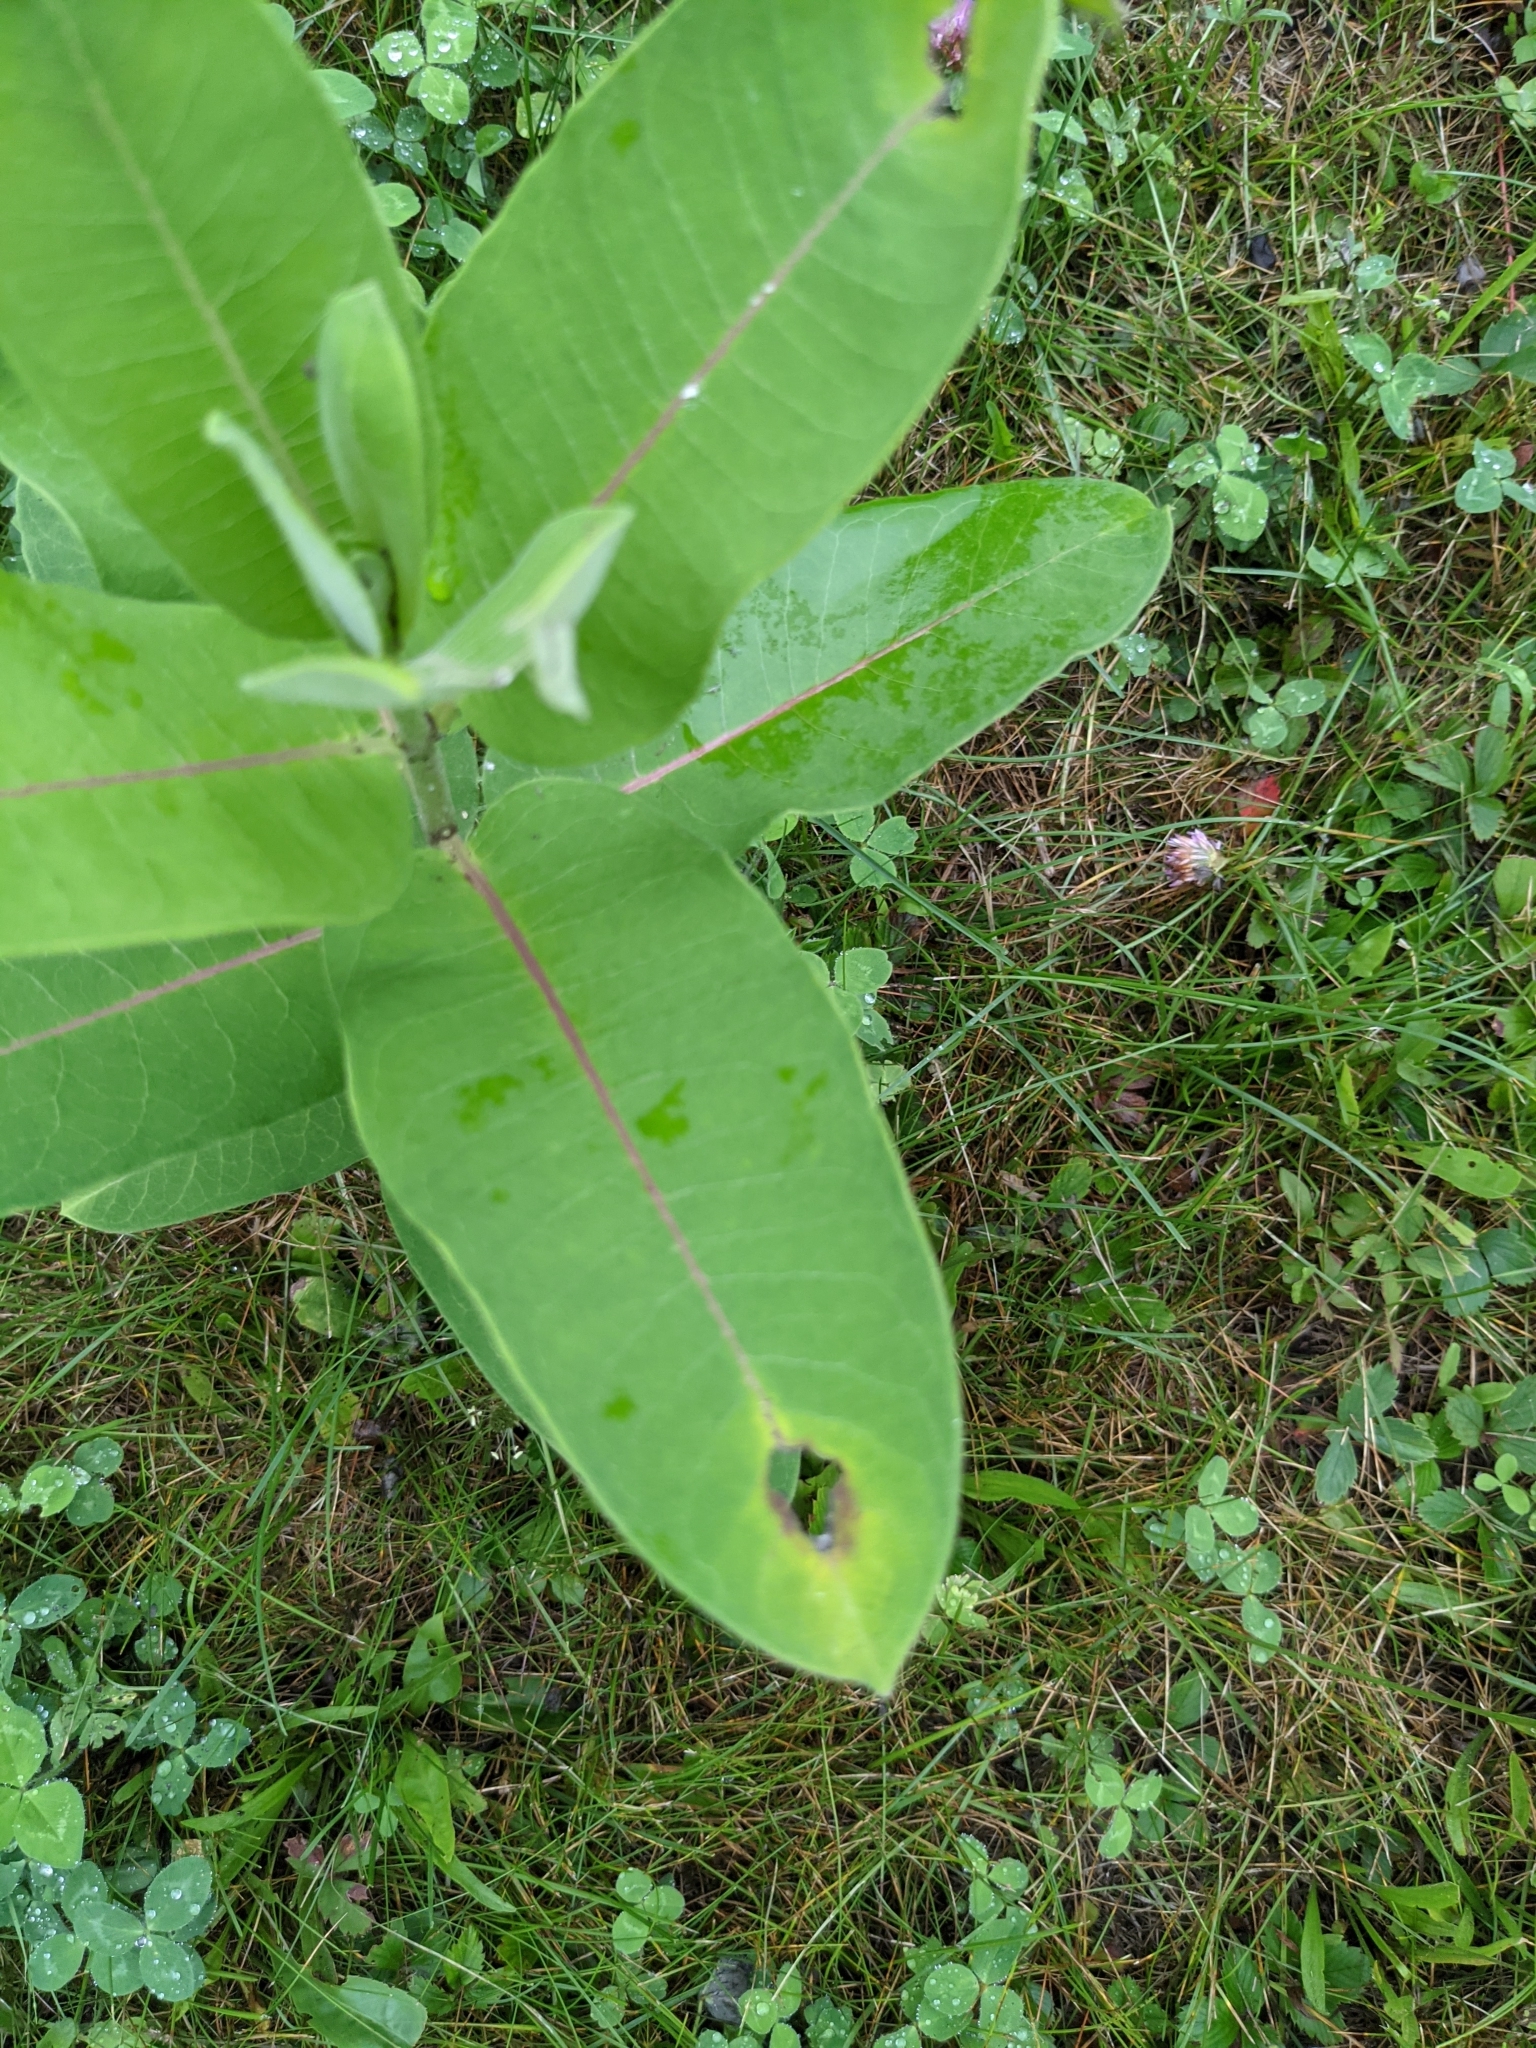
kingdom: Plantae
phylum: Tracheophyta
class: Magnoliopsida
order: Gentianales
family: Apocynaceae
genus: Asclepias
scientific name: Asclepias syriaca
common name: Common milkweed
